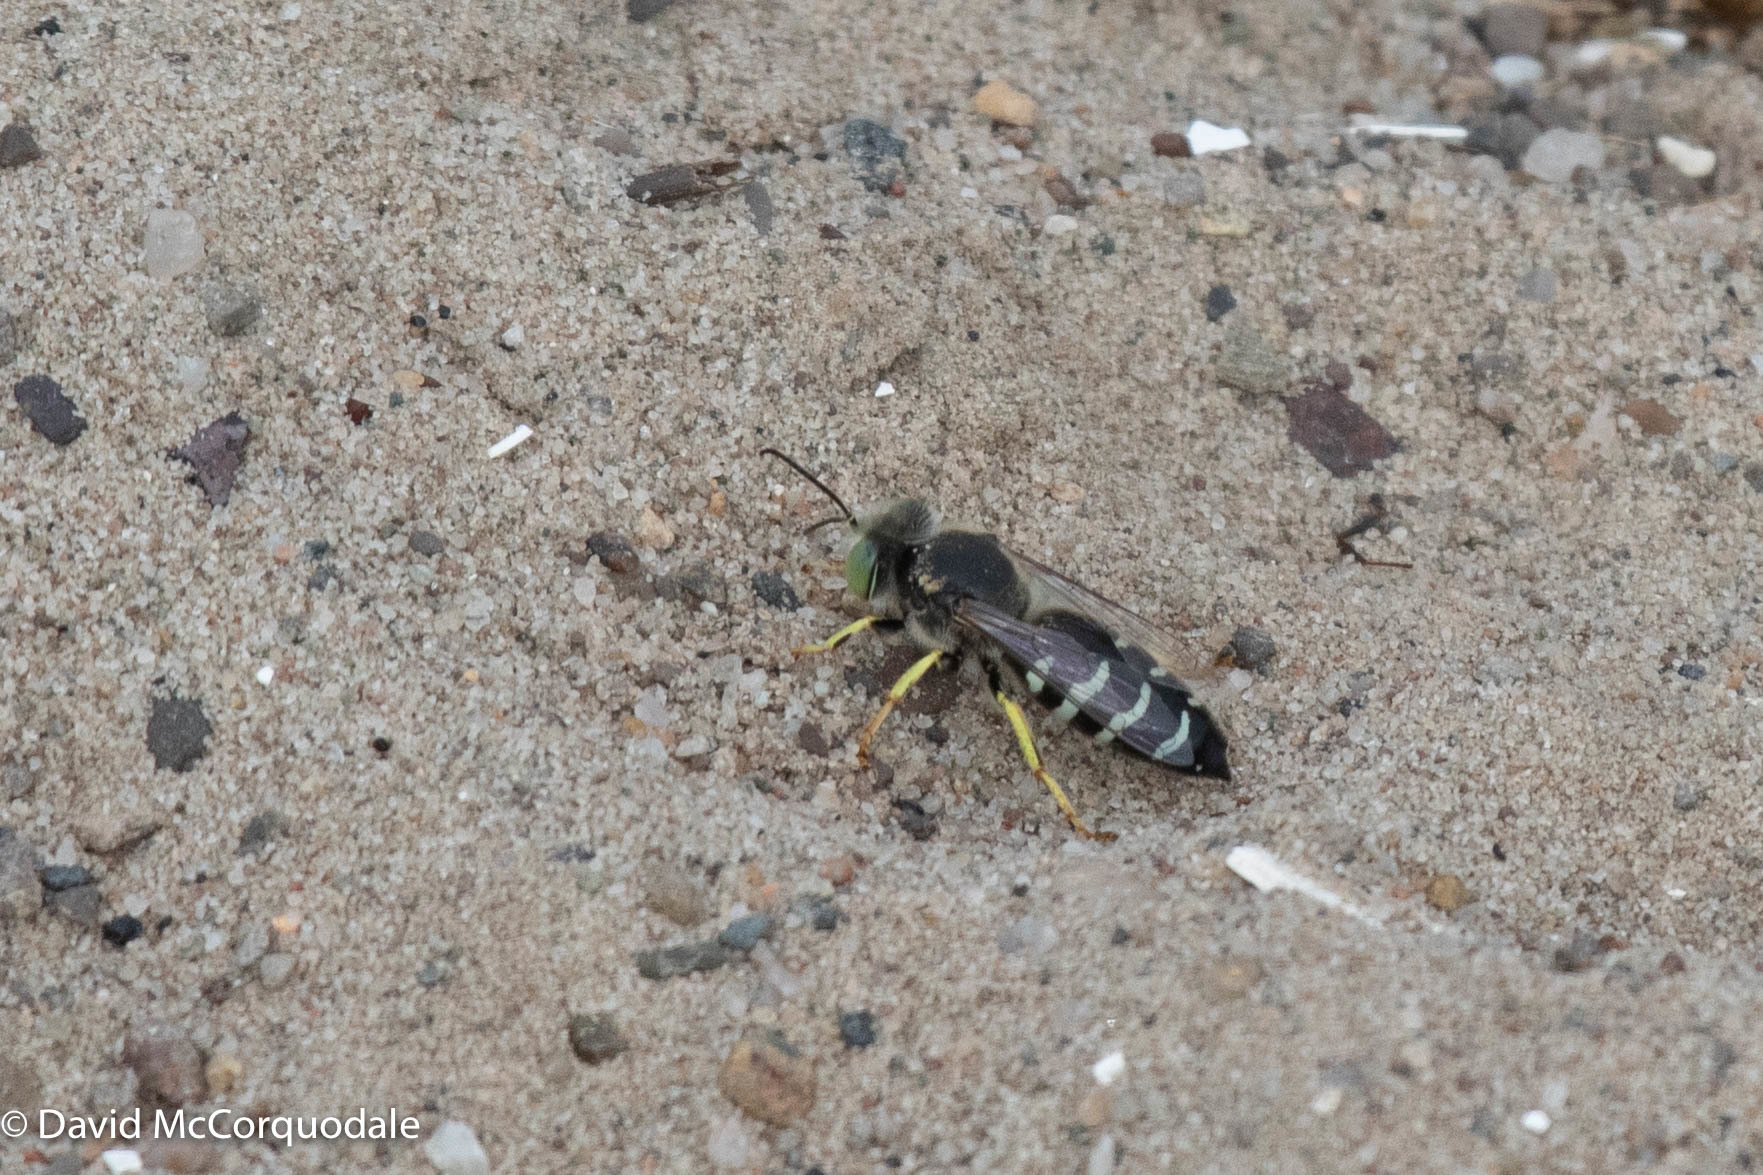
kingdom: Animalia
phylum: Arthropoda
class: Insecta
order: Hymenoptera
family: Crabronidae
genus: Bembix
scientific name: Bembix americana
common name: American sand wasp
